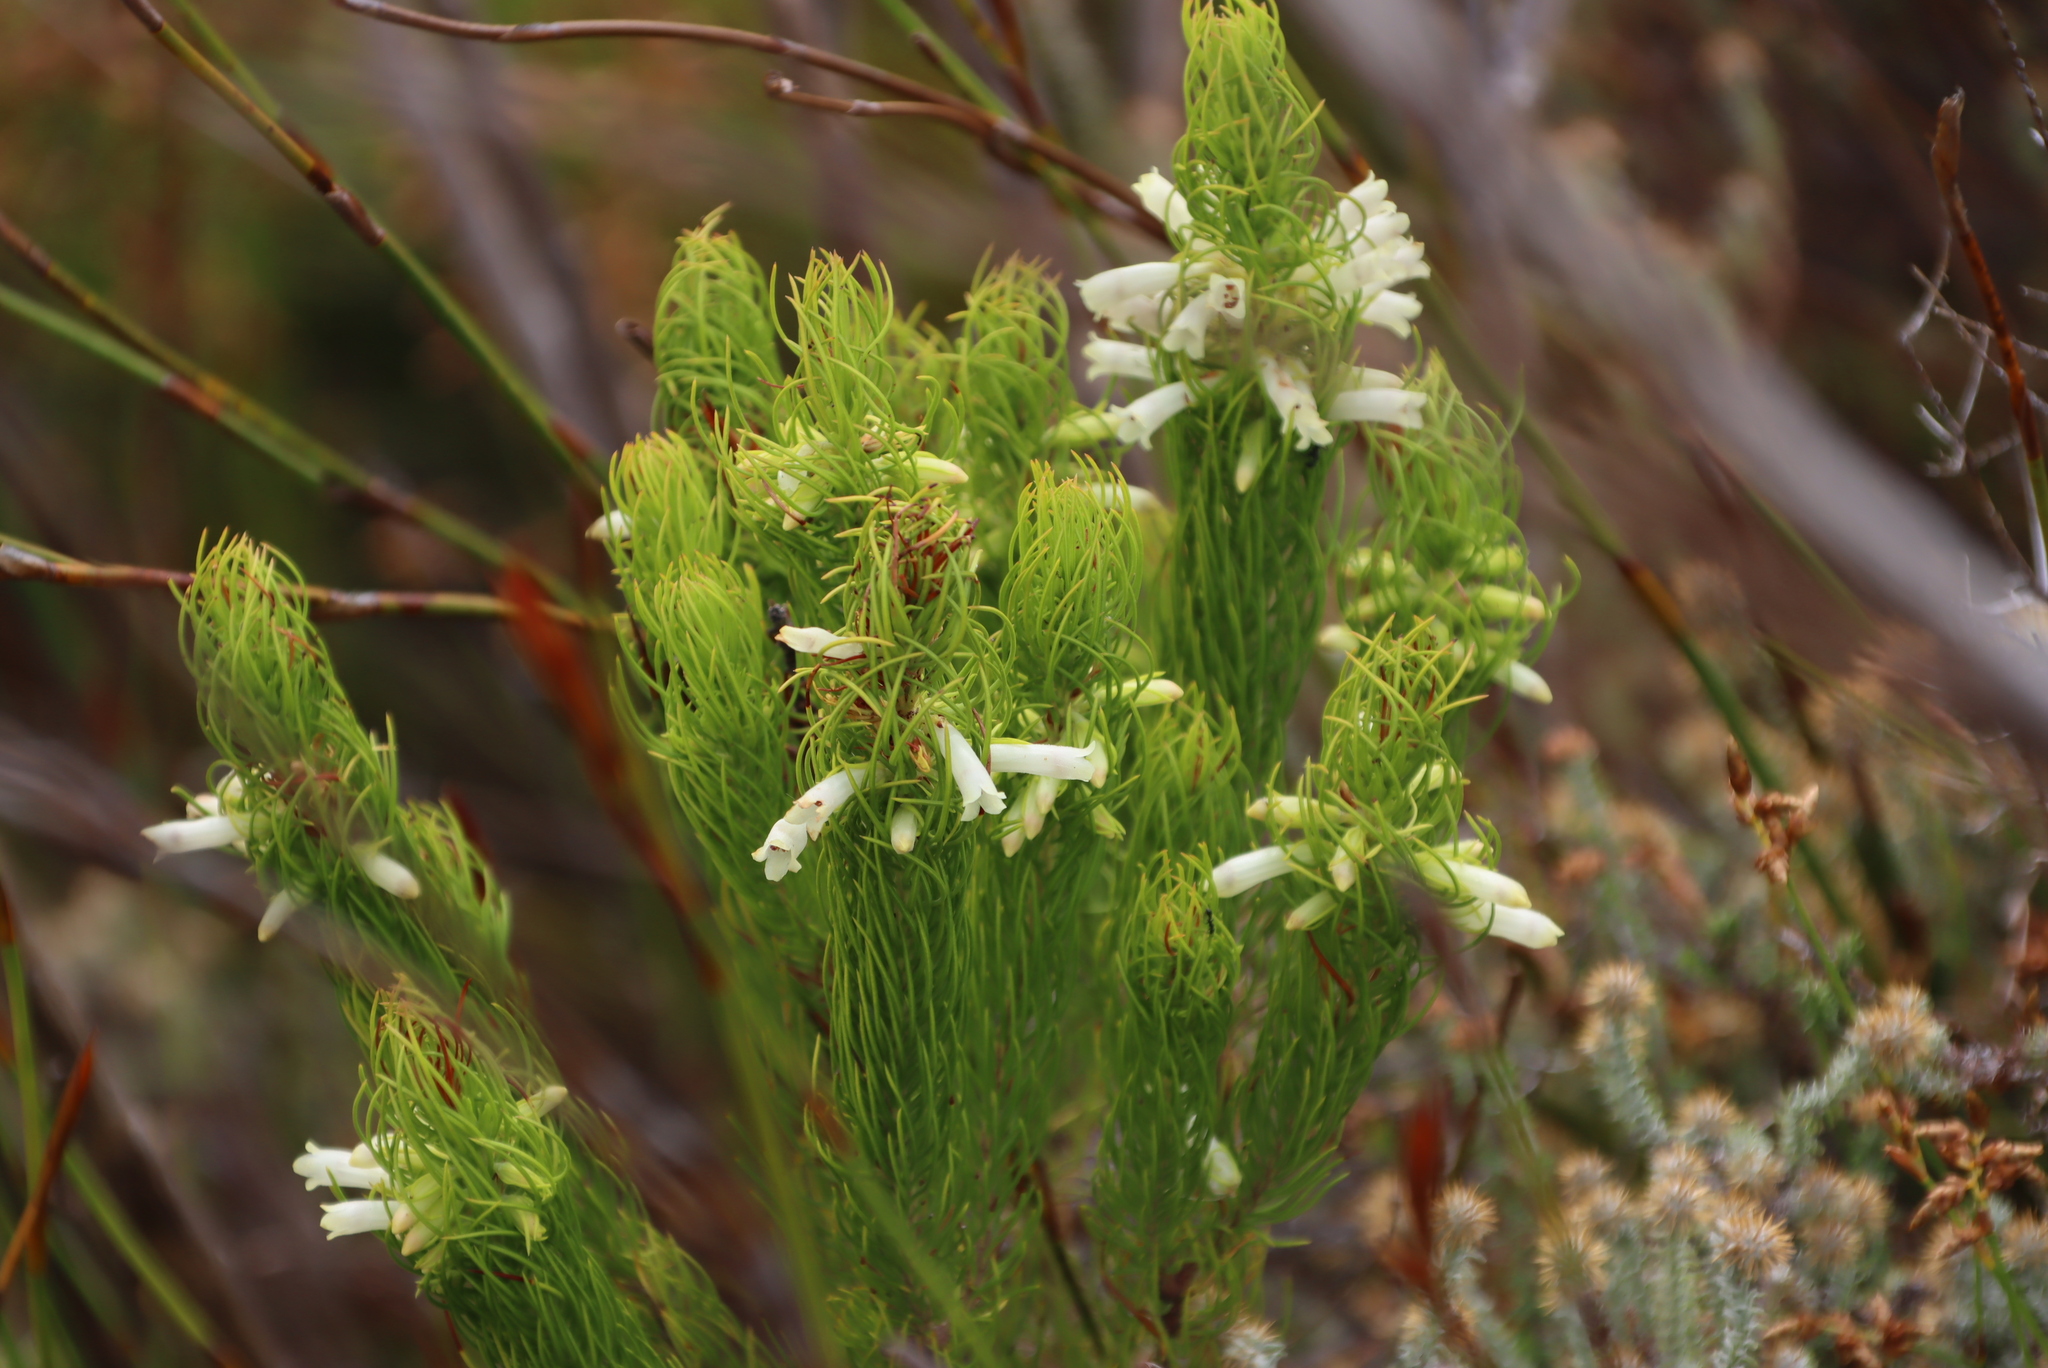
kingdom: Plantae
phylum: Tracheophyta
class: Magnoliopsida
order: Ericales
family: Ericaceae
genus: Erica
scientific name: Erica viscaria
